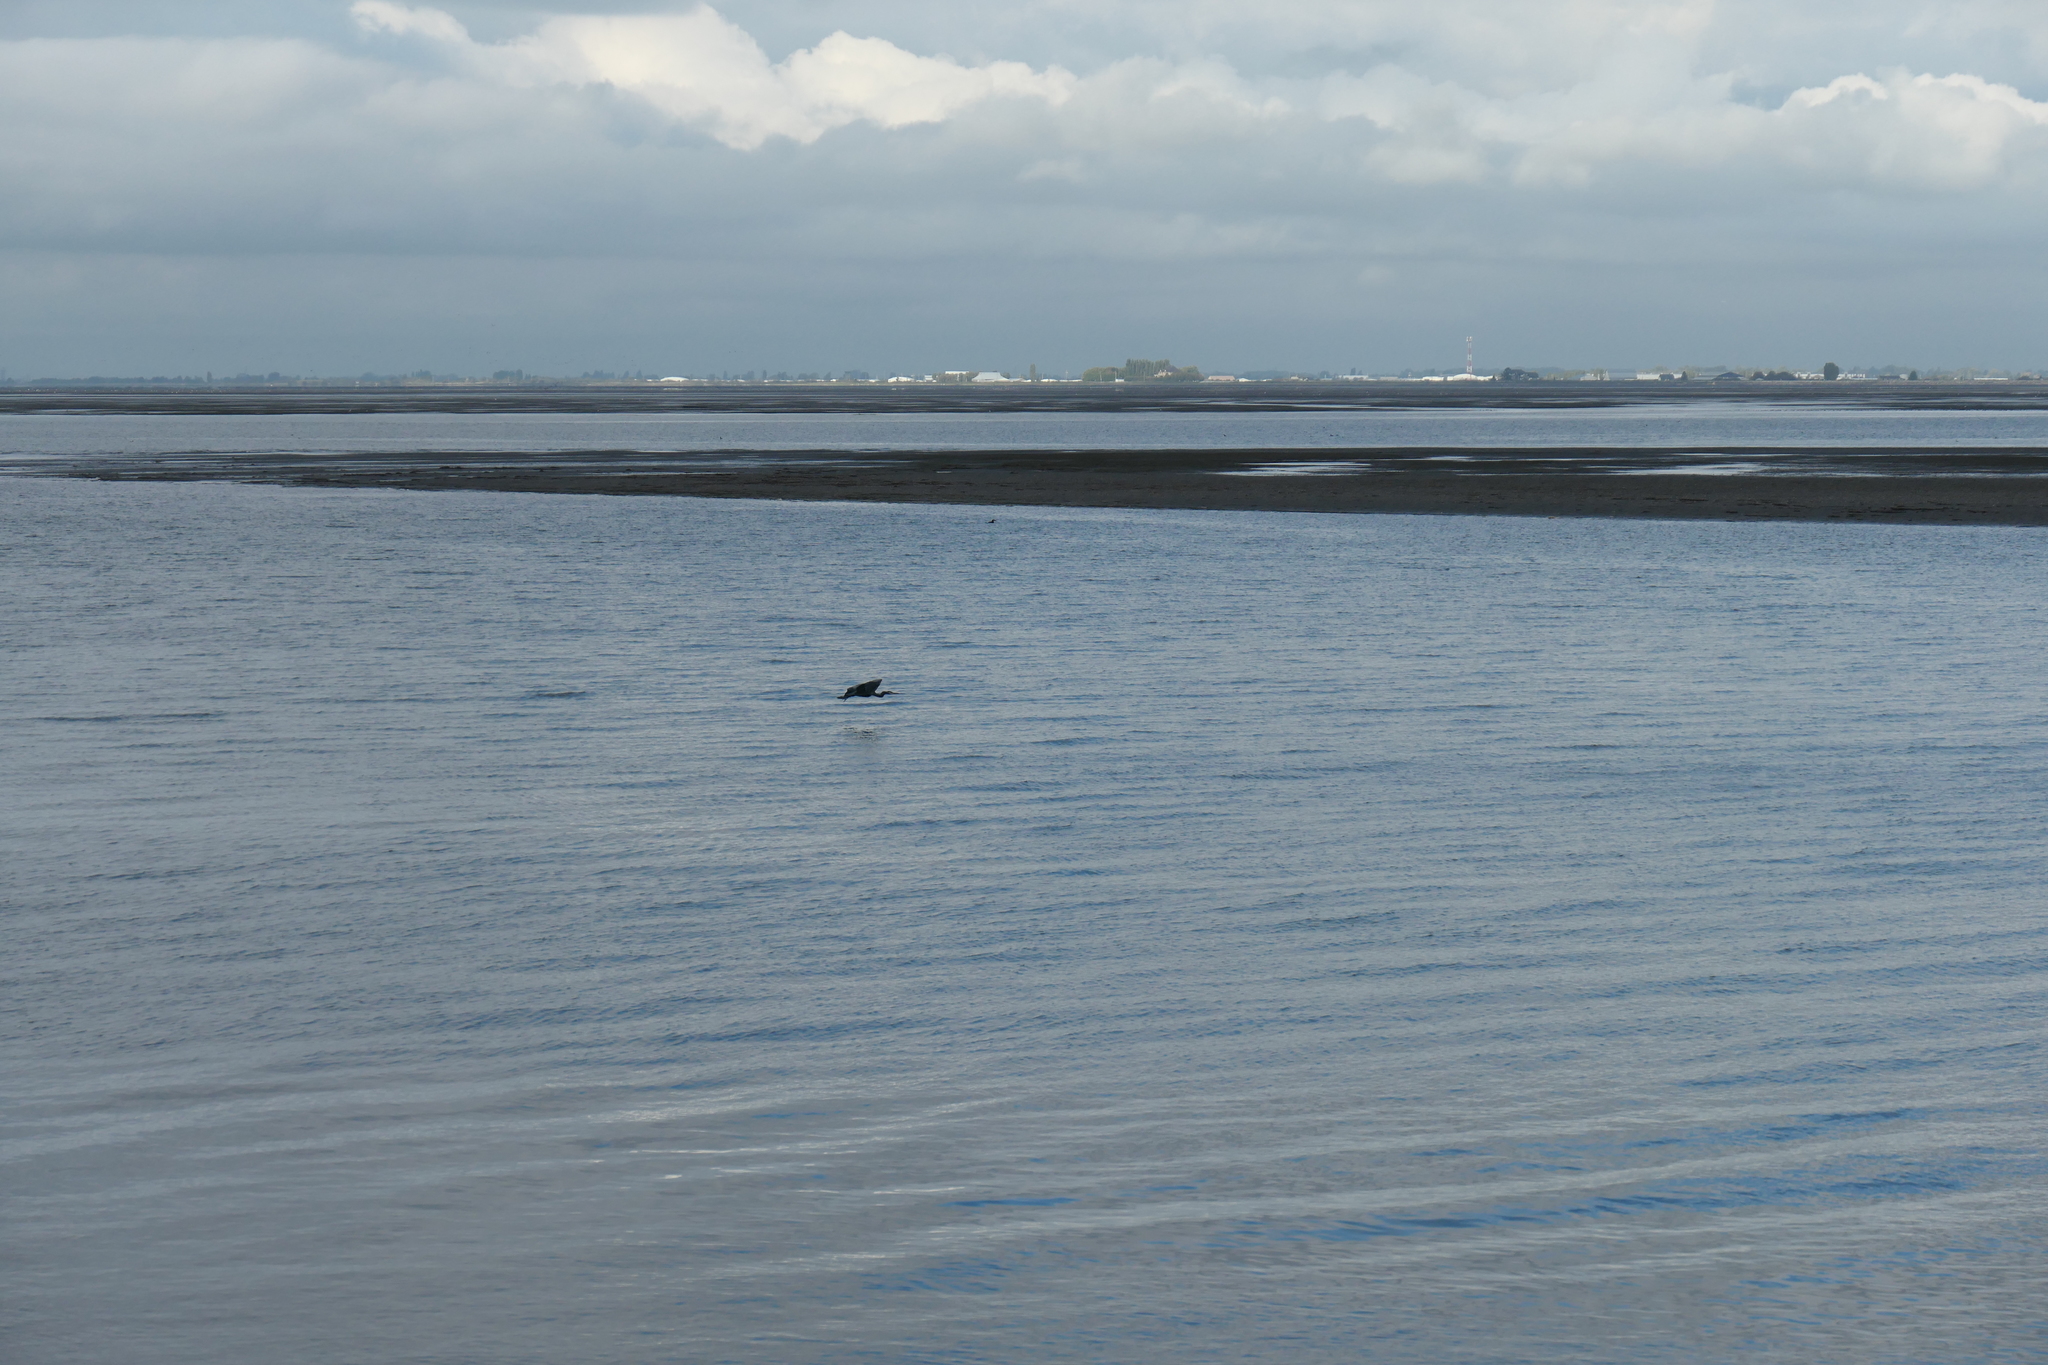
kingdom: Animalia
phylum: Chordata
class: Aves
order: Pelecaniformes
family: Ardeidae
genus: Ardea
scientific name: Ardea herodias
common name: Great blue heron
